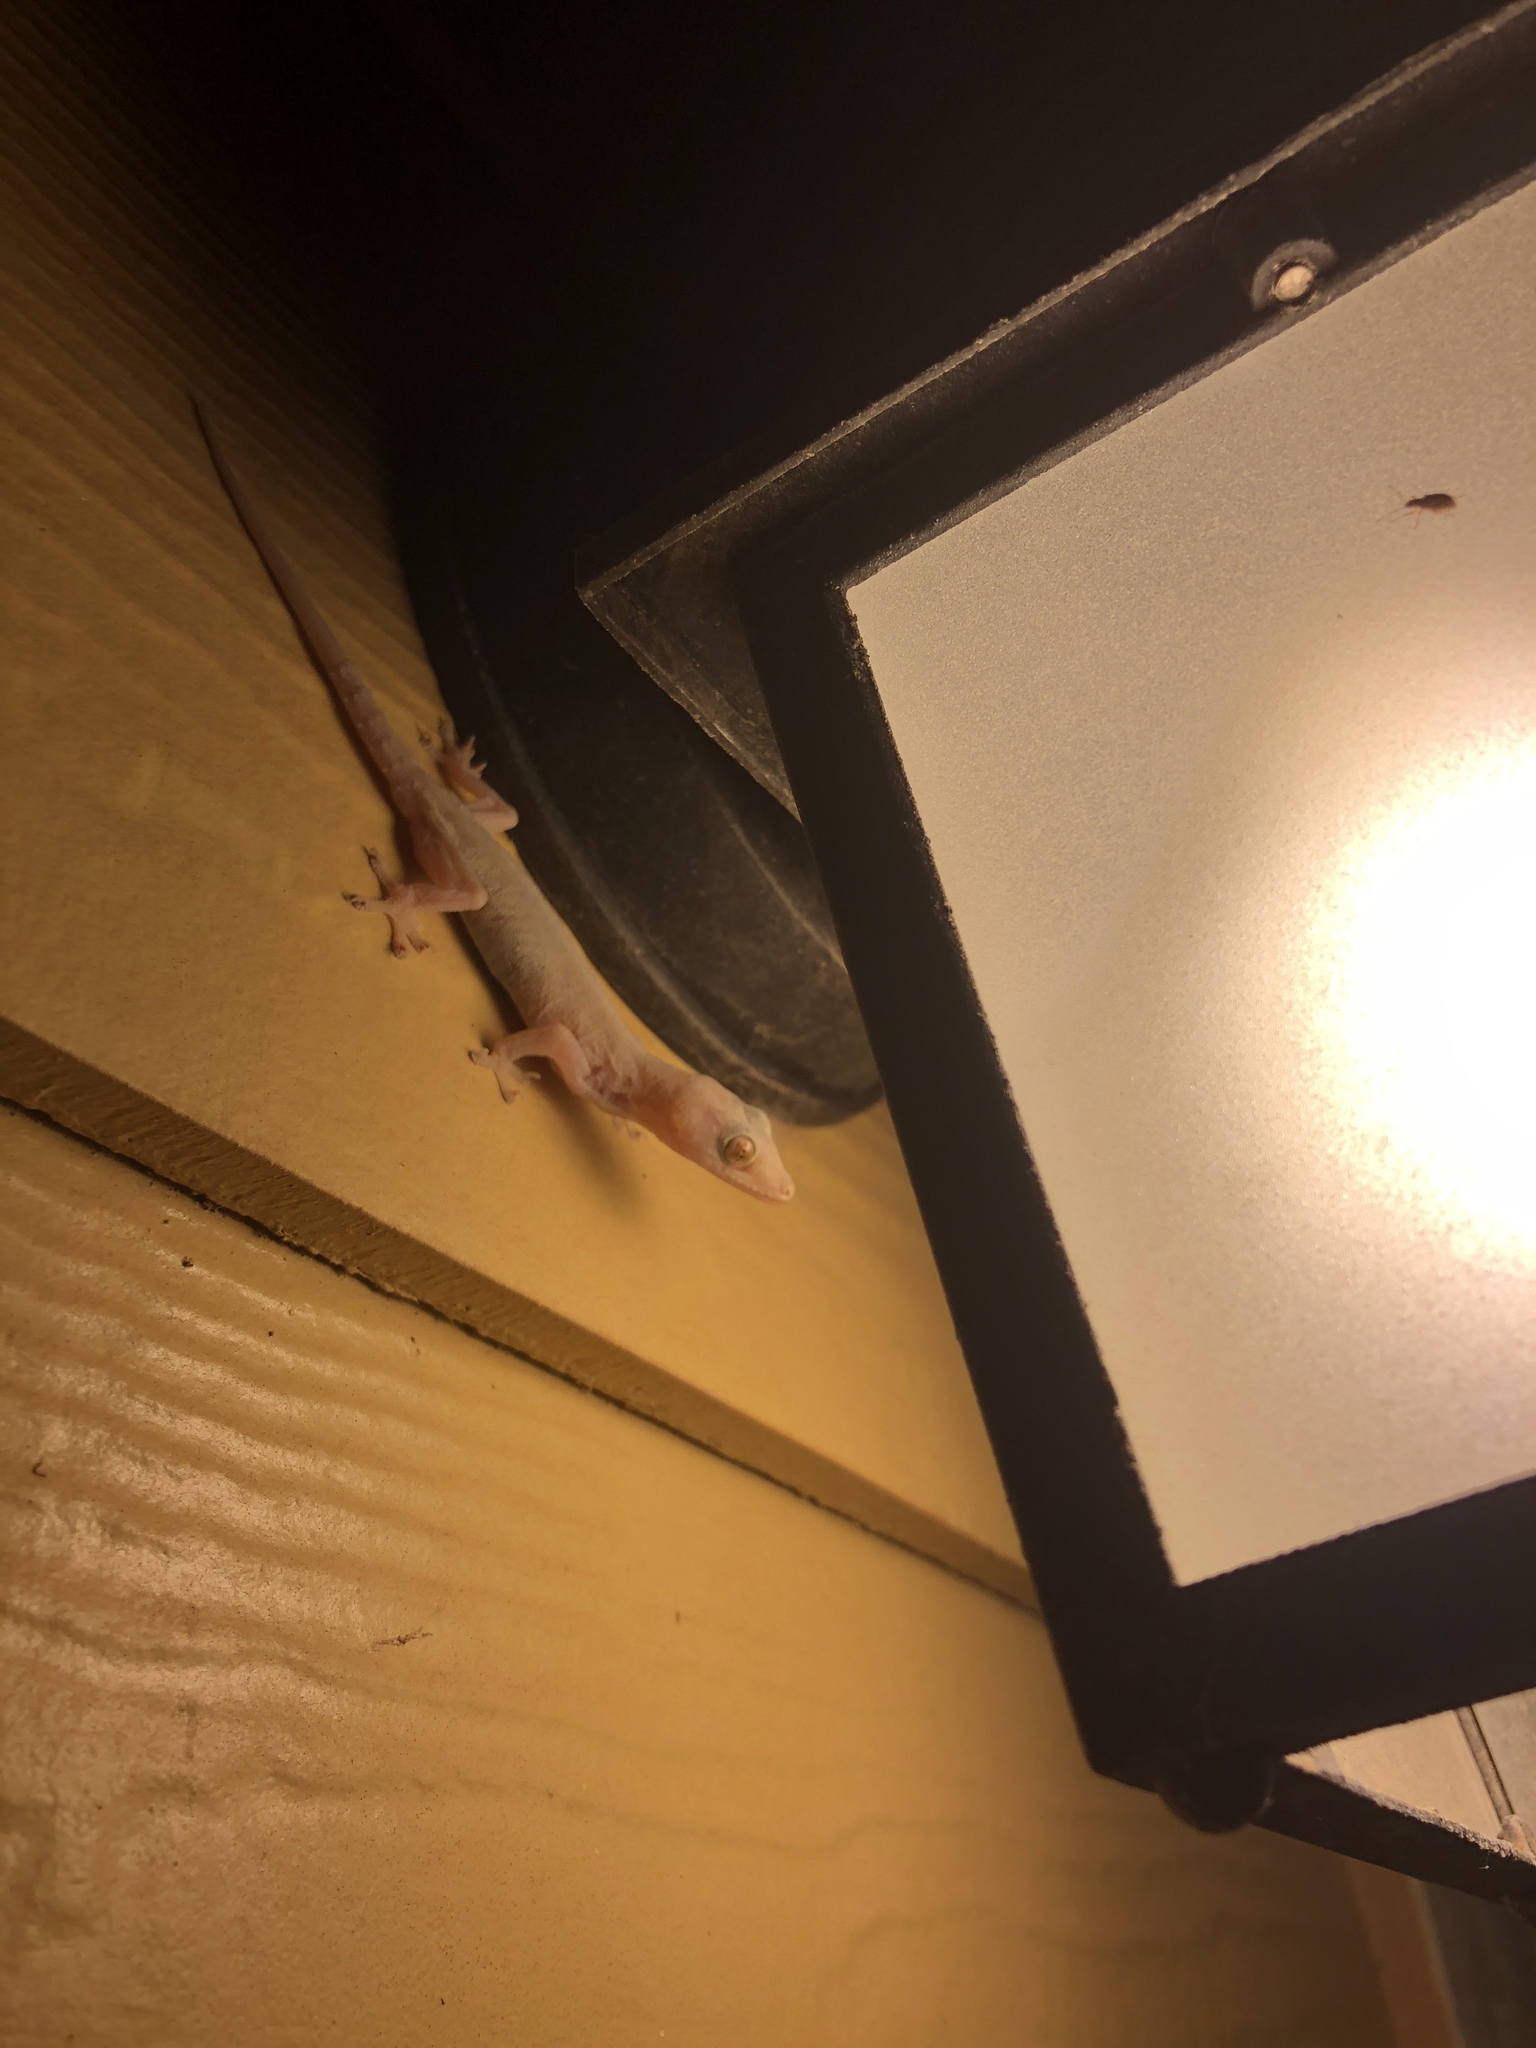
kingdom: Animalia
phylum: Chordata
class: Squamata
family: Gekkonidae
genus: Hemidactylus
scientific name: Hemidactylus frenatus
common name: Common house gecko
